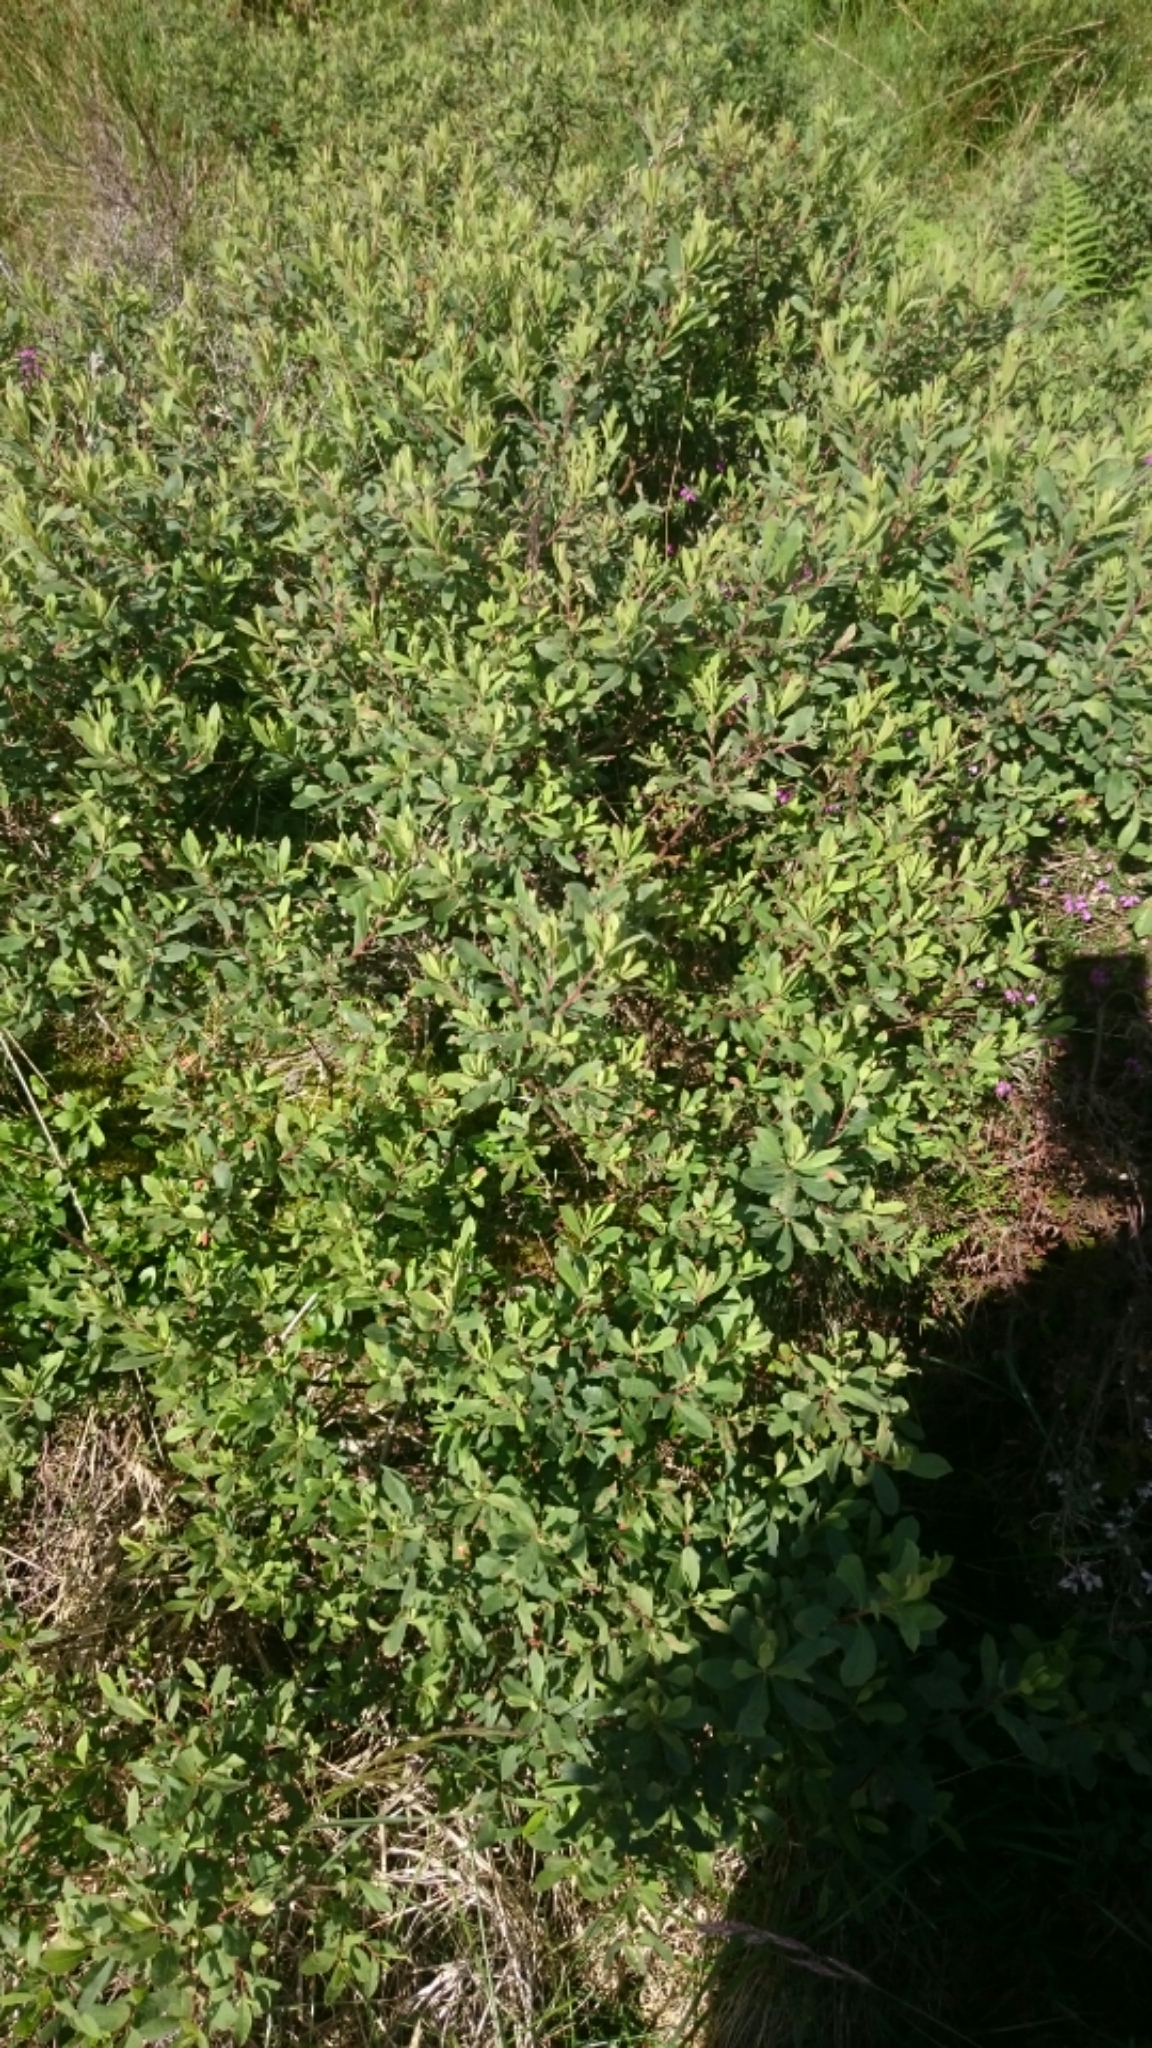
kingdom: Plantae
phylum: Tracheophyta
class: Magnoliopsida
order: Fagales
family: Myricaceae
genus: Myrica
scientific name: Myrica gale
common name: Sweet gale
